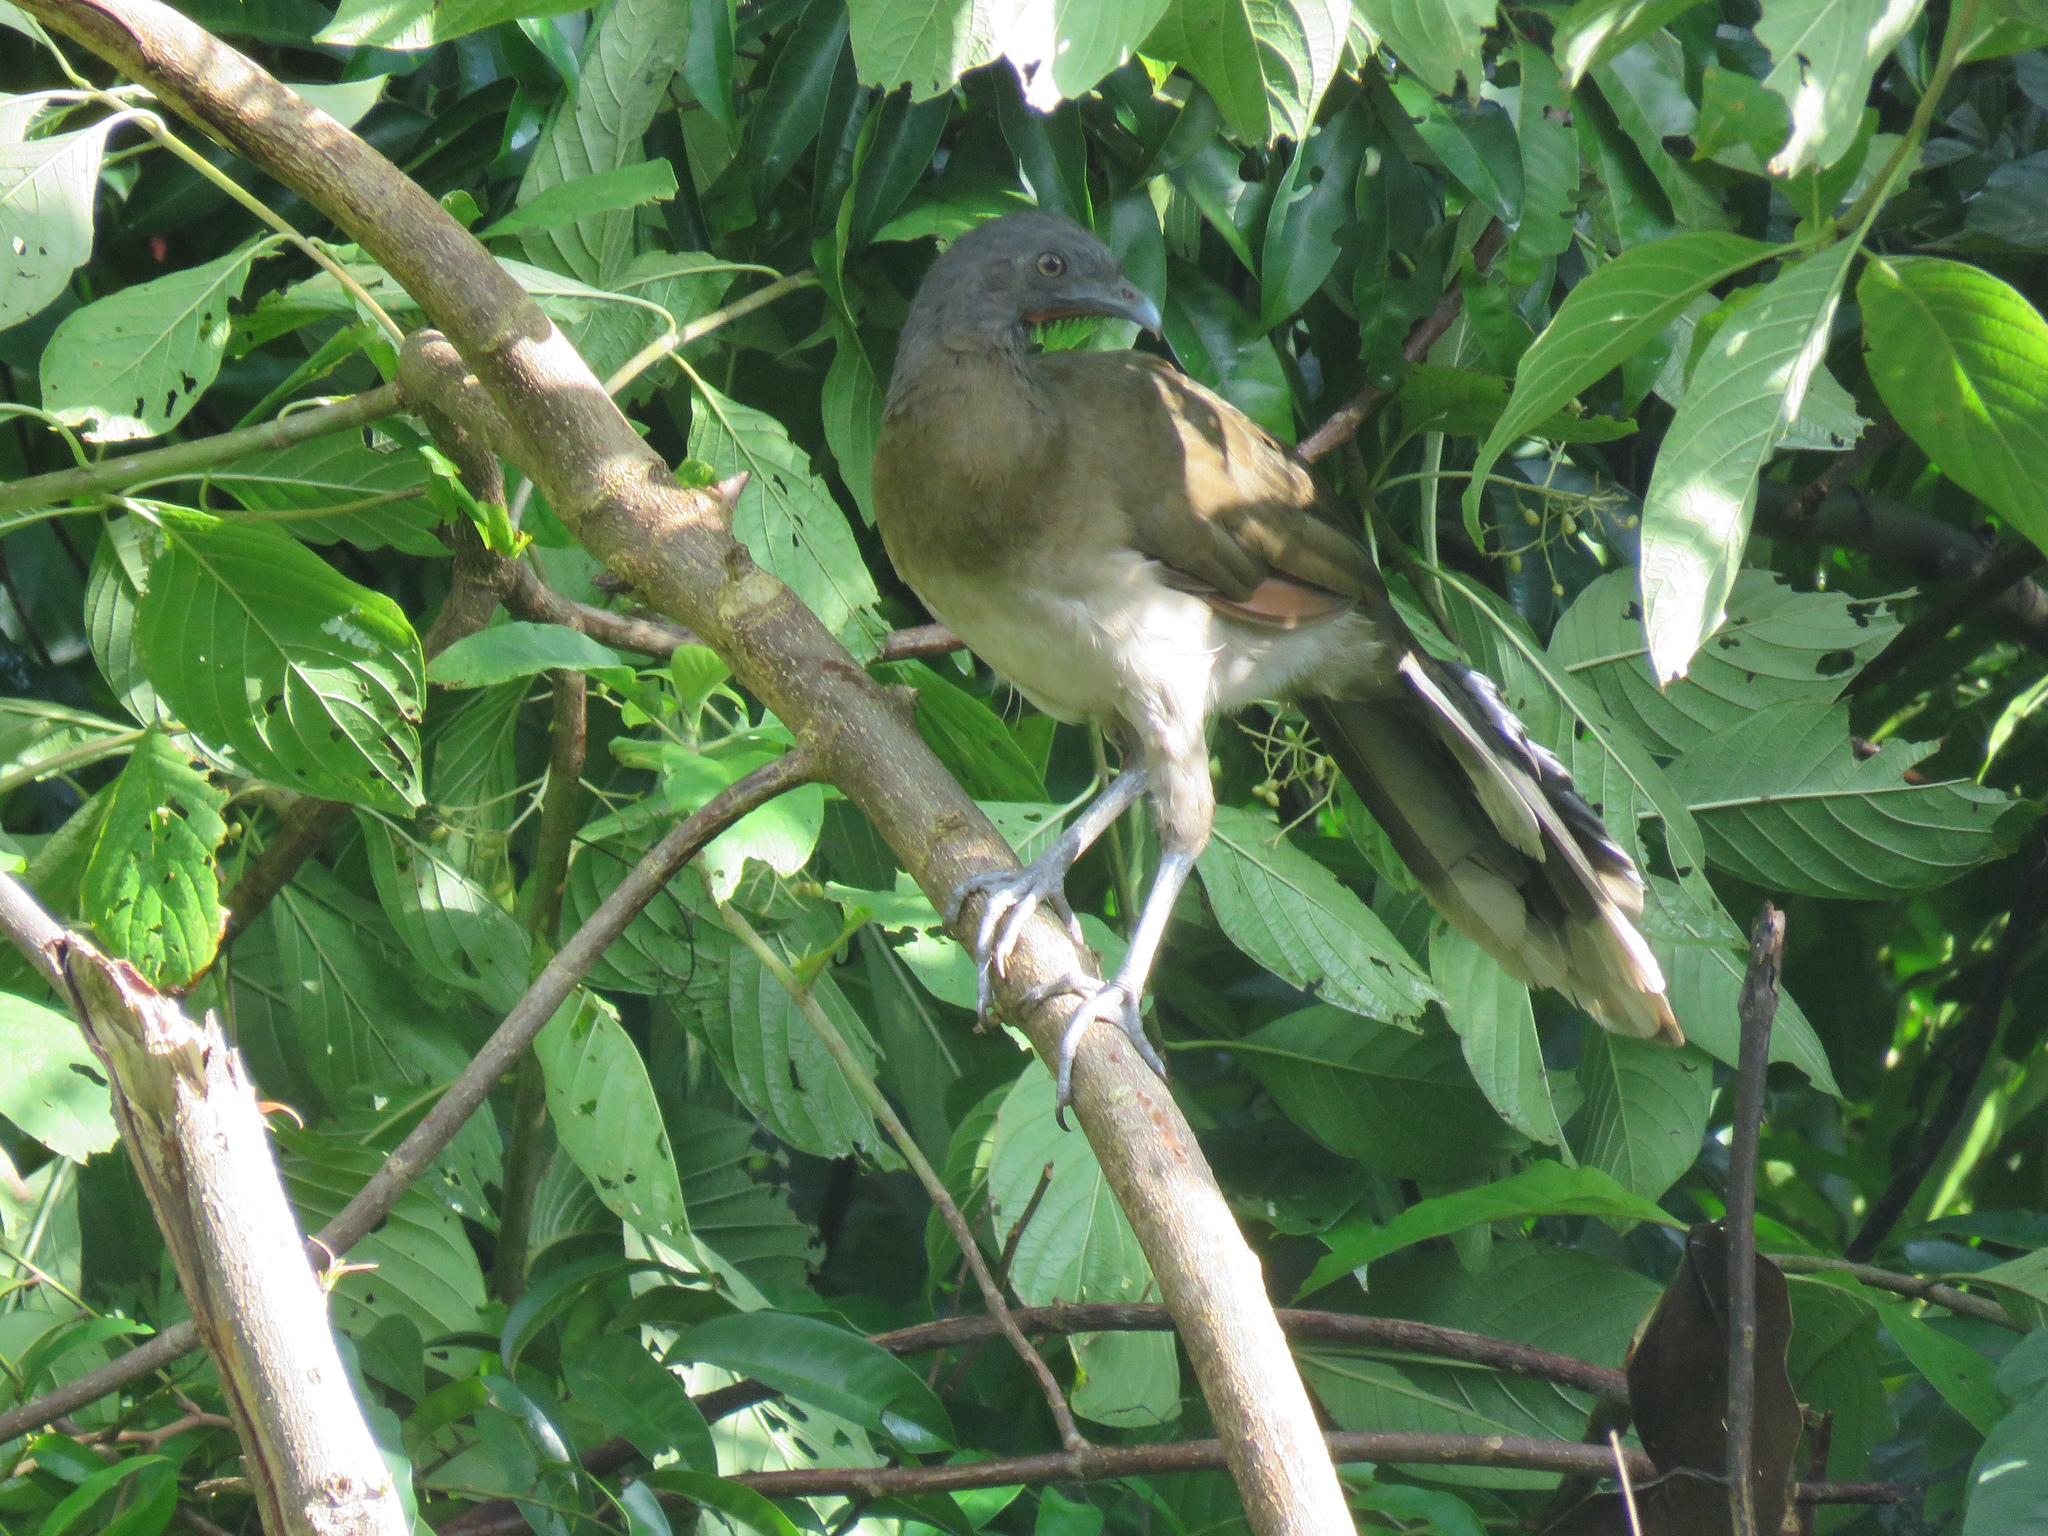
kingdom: Animalia
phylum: Chordata
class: Aves
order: Galliformes
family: Cracidae
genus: Ortalis
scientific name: Ortalis cinereiceps
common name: Grey-headed chachalaca
